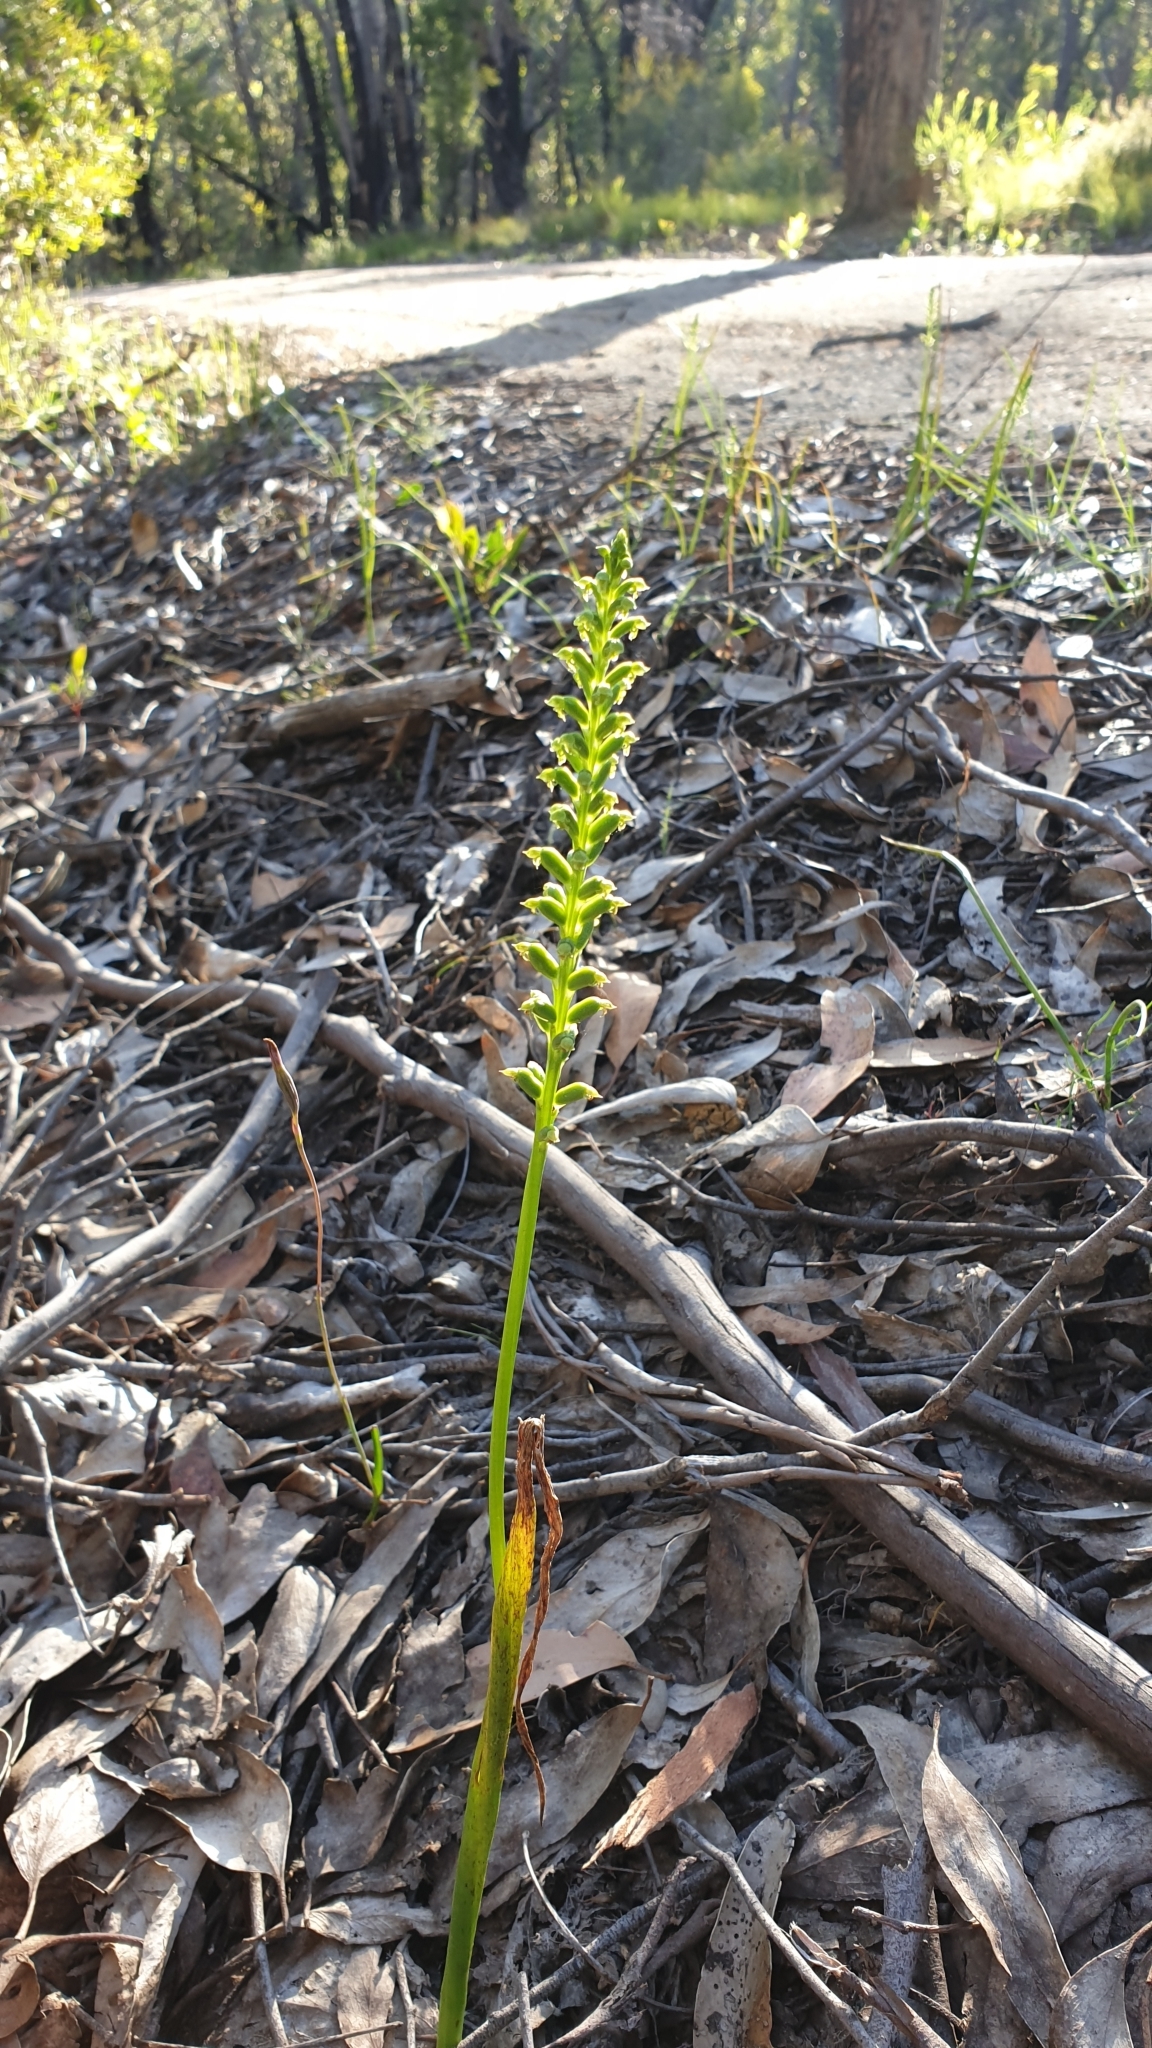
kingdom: Plantae
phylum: Tracheophyta
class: Liliopsida
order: Asparagales
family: Orchidaceae
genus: Microtis
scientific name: Microtis arenaria
